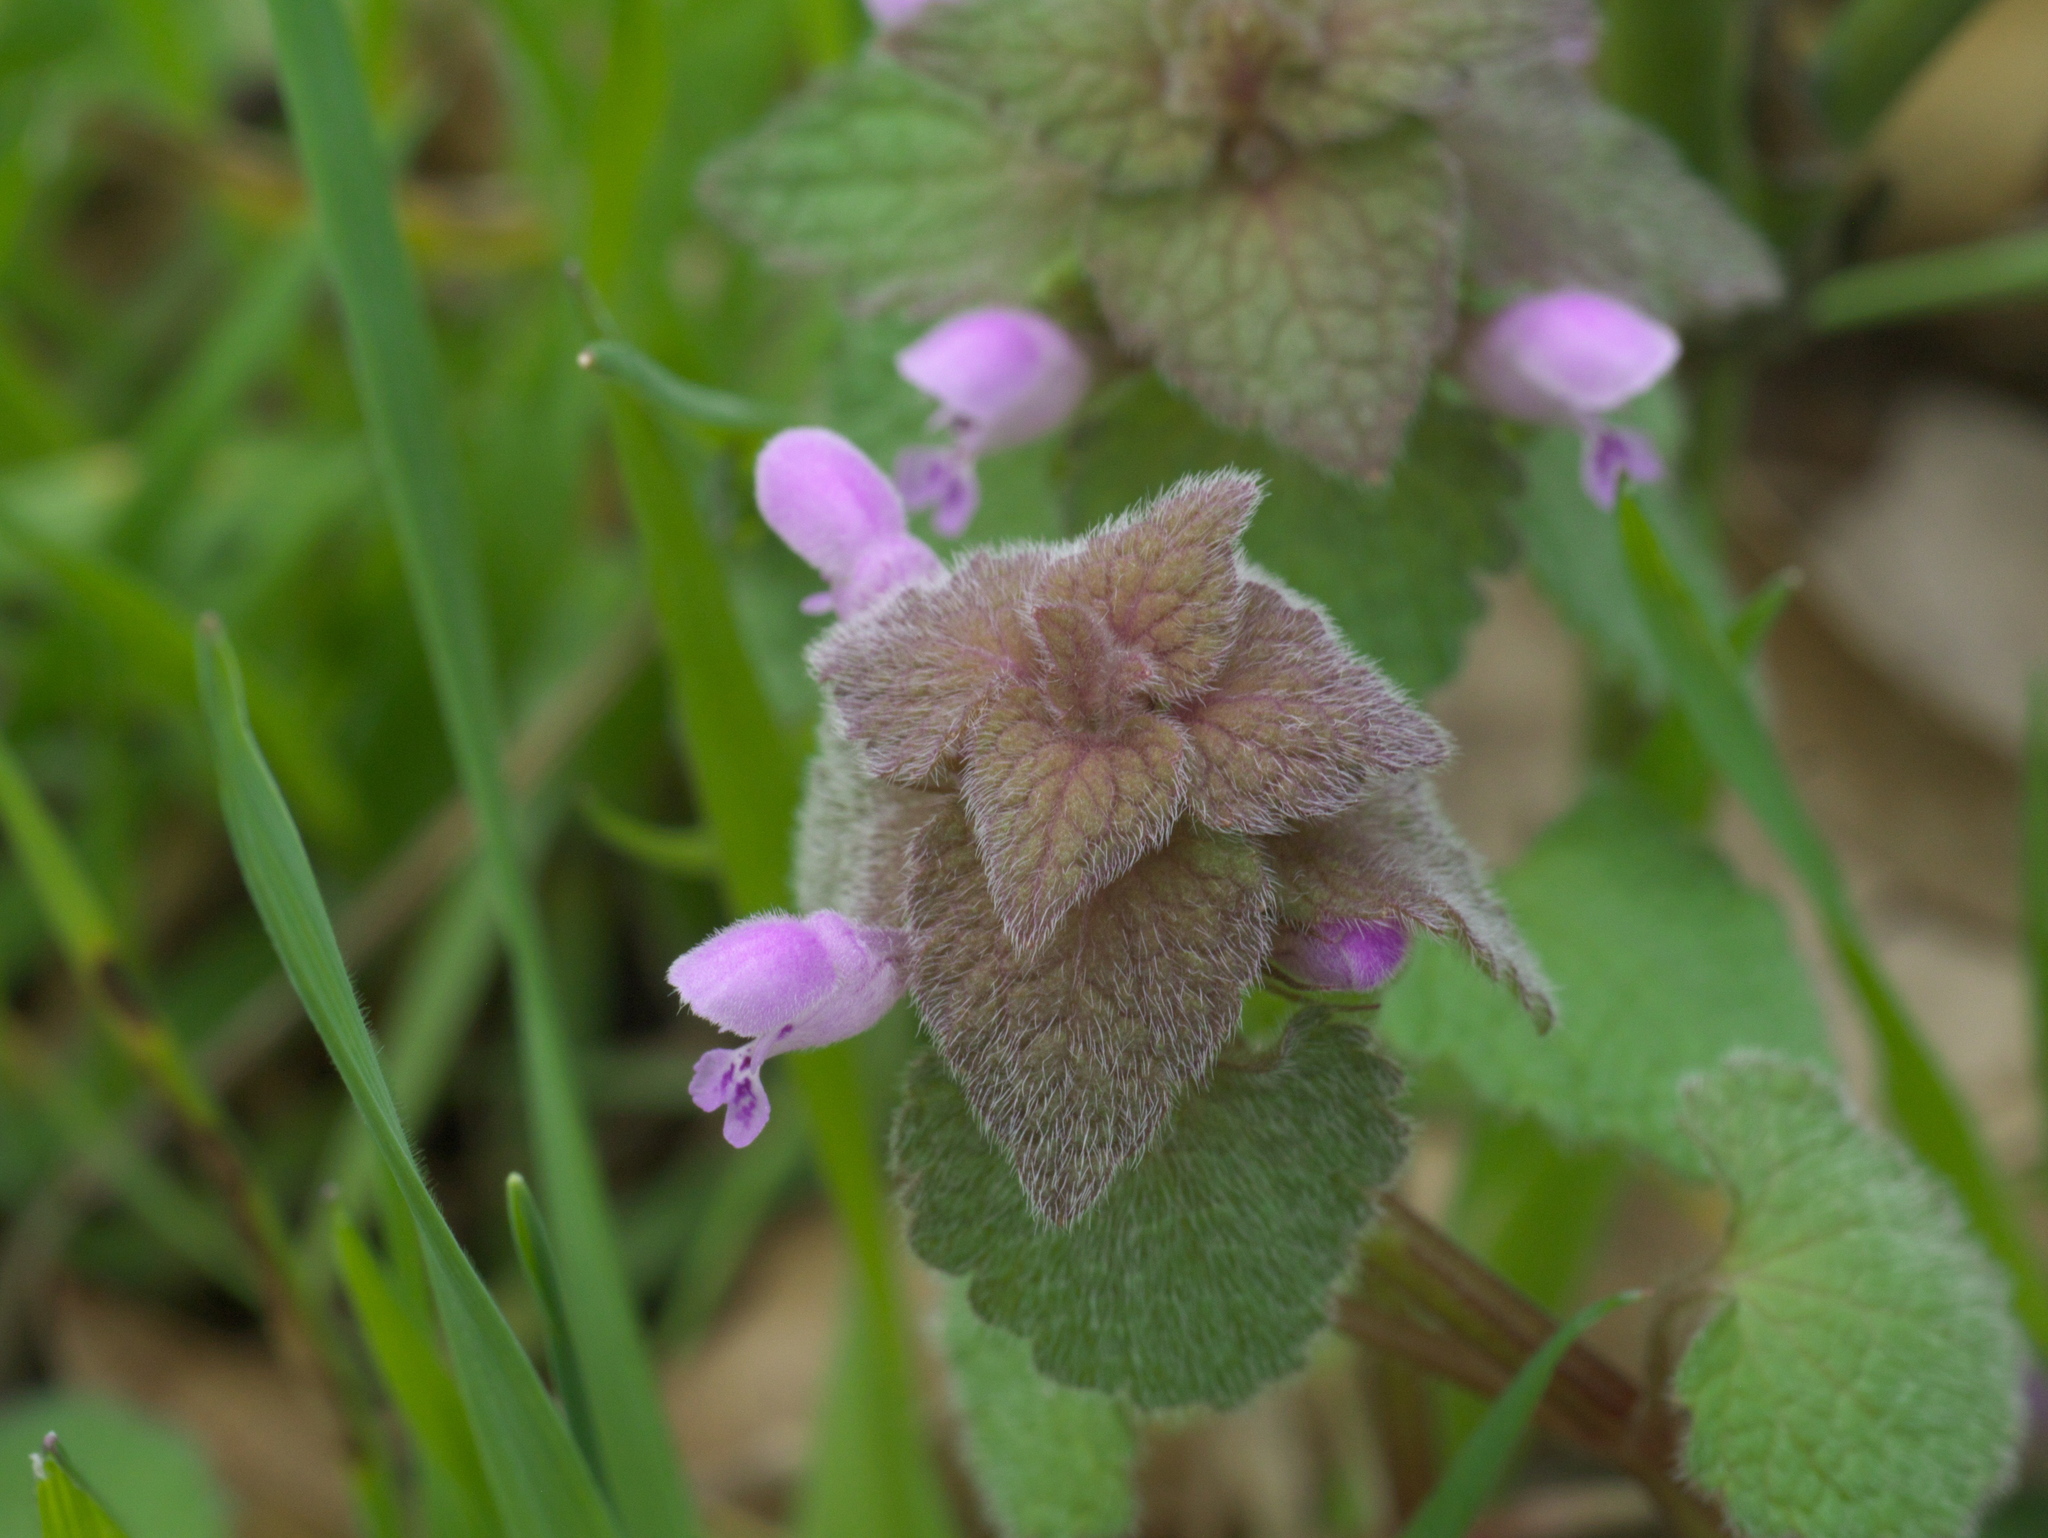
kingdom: Plantae
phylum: Tracheophyta
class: Magnoliopsida
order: Lamiales
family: Lamiaceae
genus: Lamium
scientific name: Lamium purpureum
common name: Red dead-nettle
